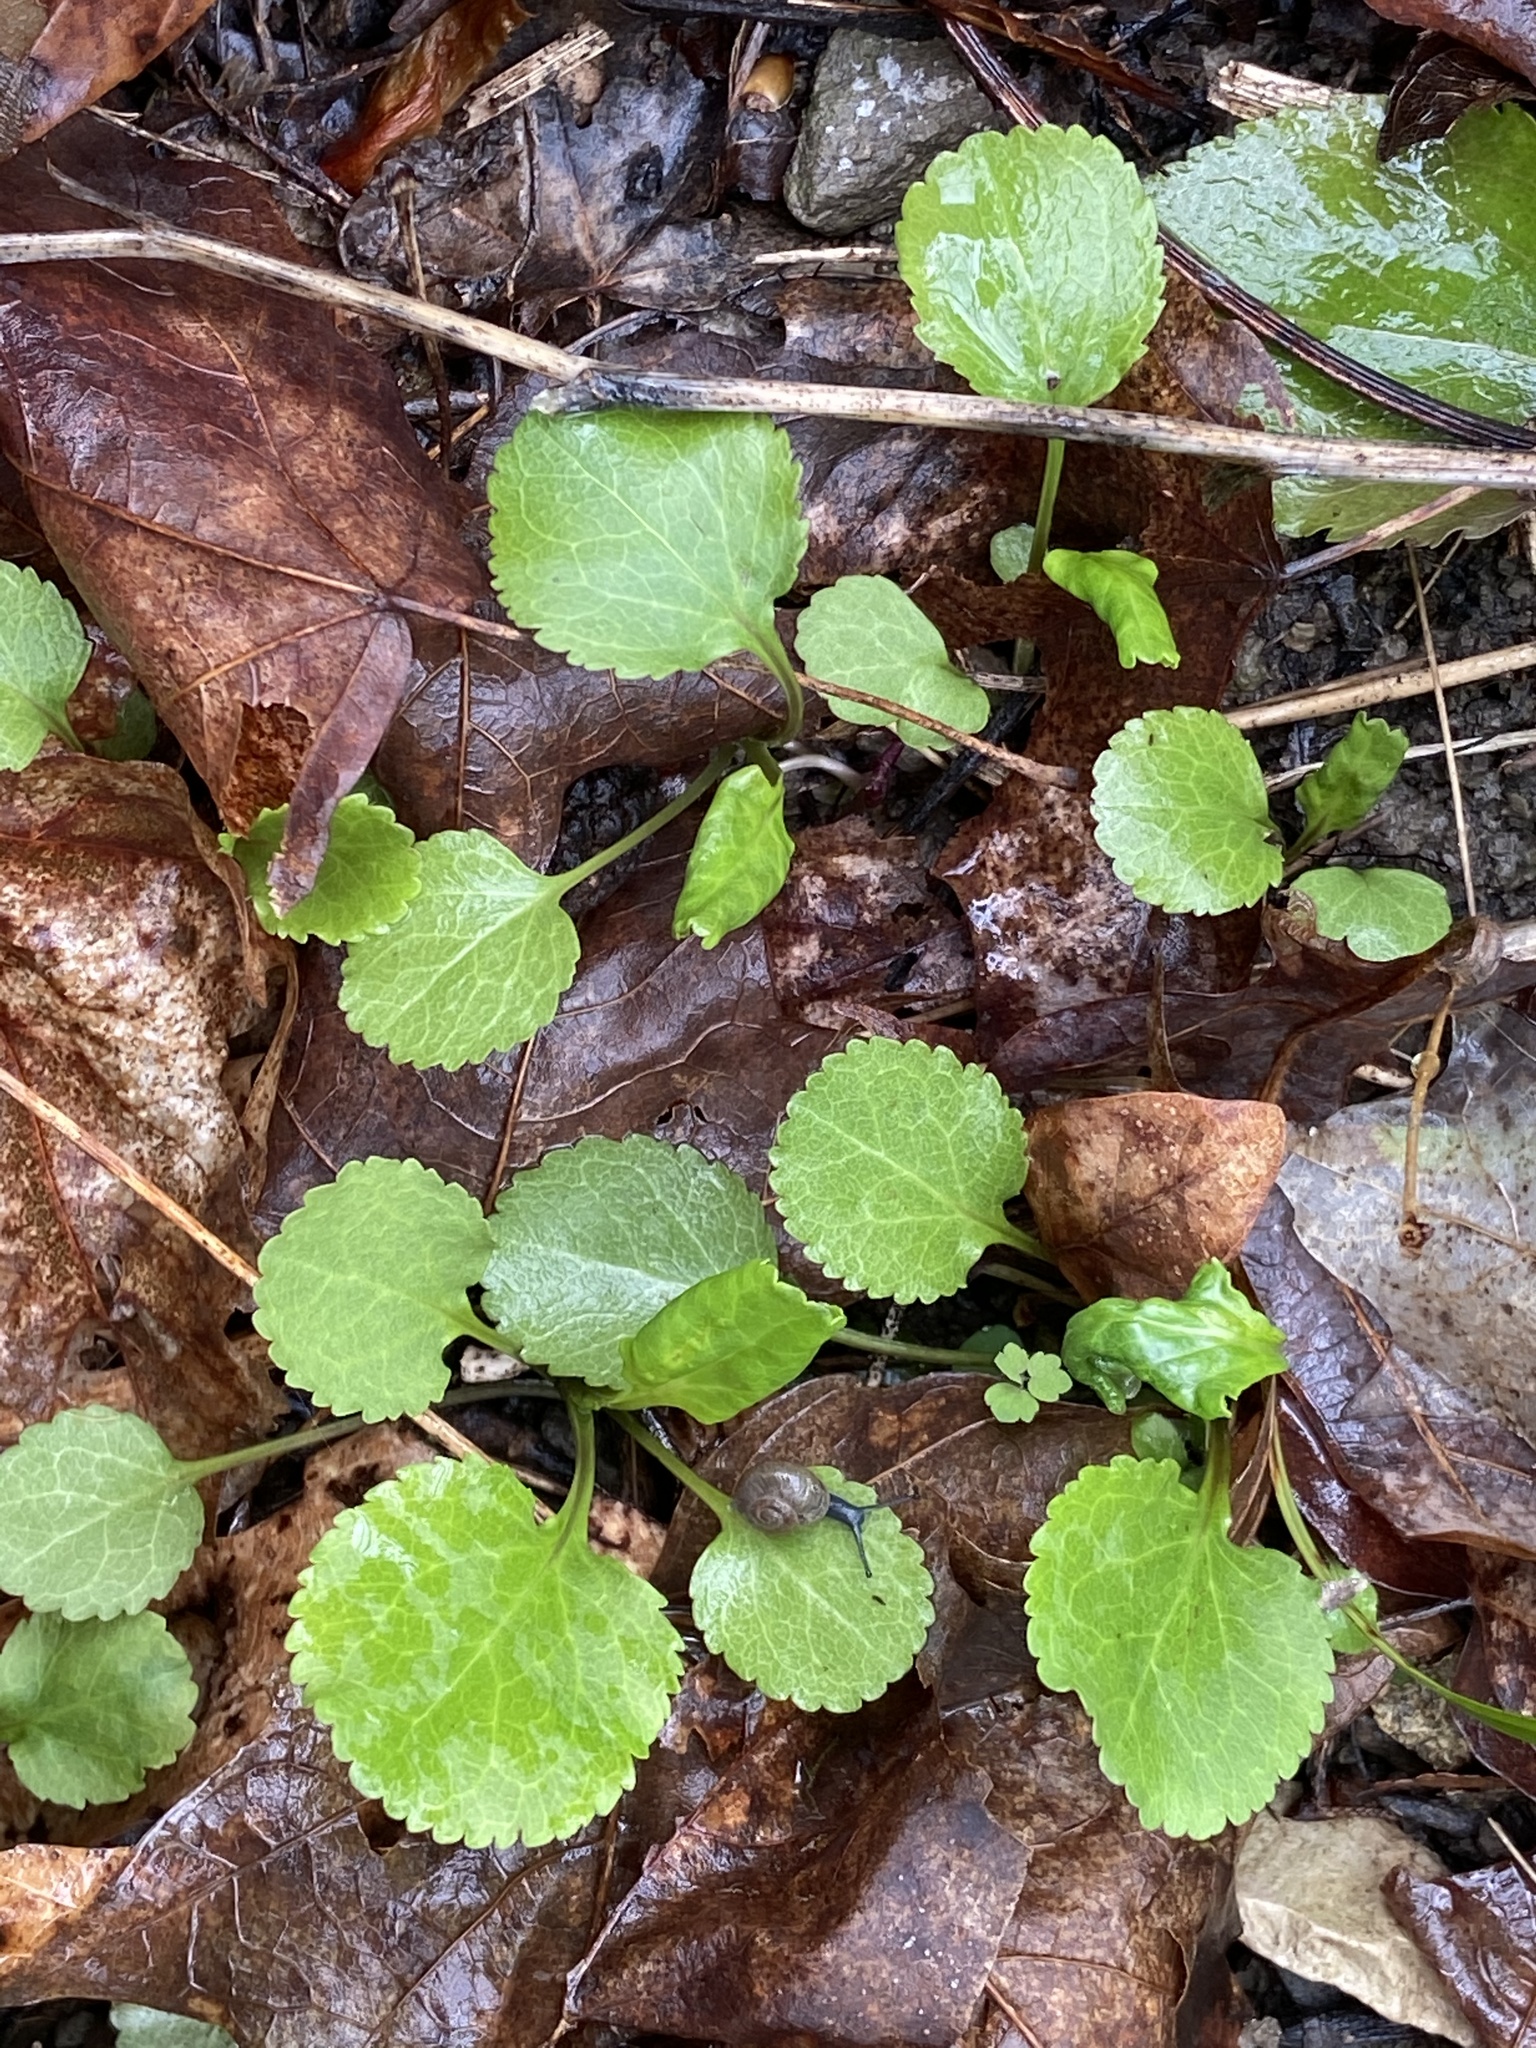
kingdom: Plantae
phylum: Tracheophyta
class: Magnoliopsida
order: Asterales
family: Asteraceae
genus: Packera
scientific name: Packera obovata
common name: Round-leaf ragwort
